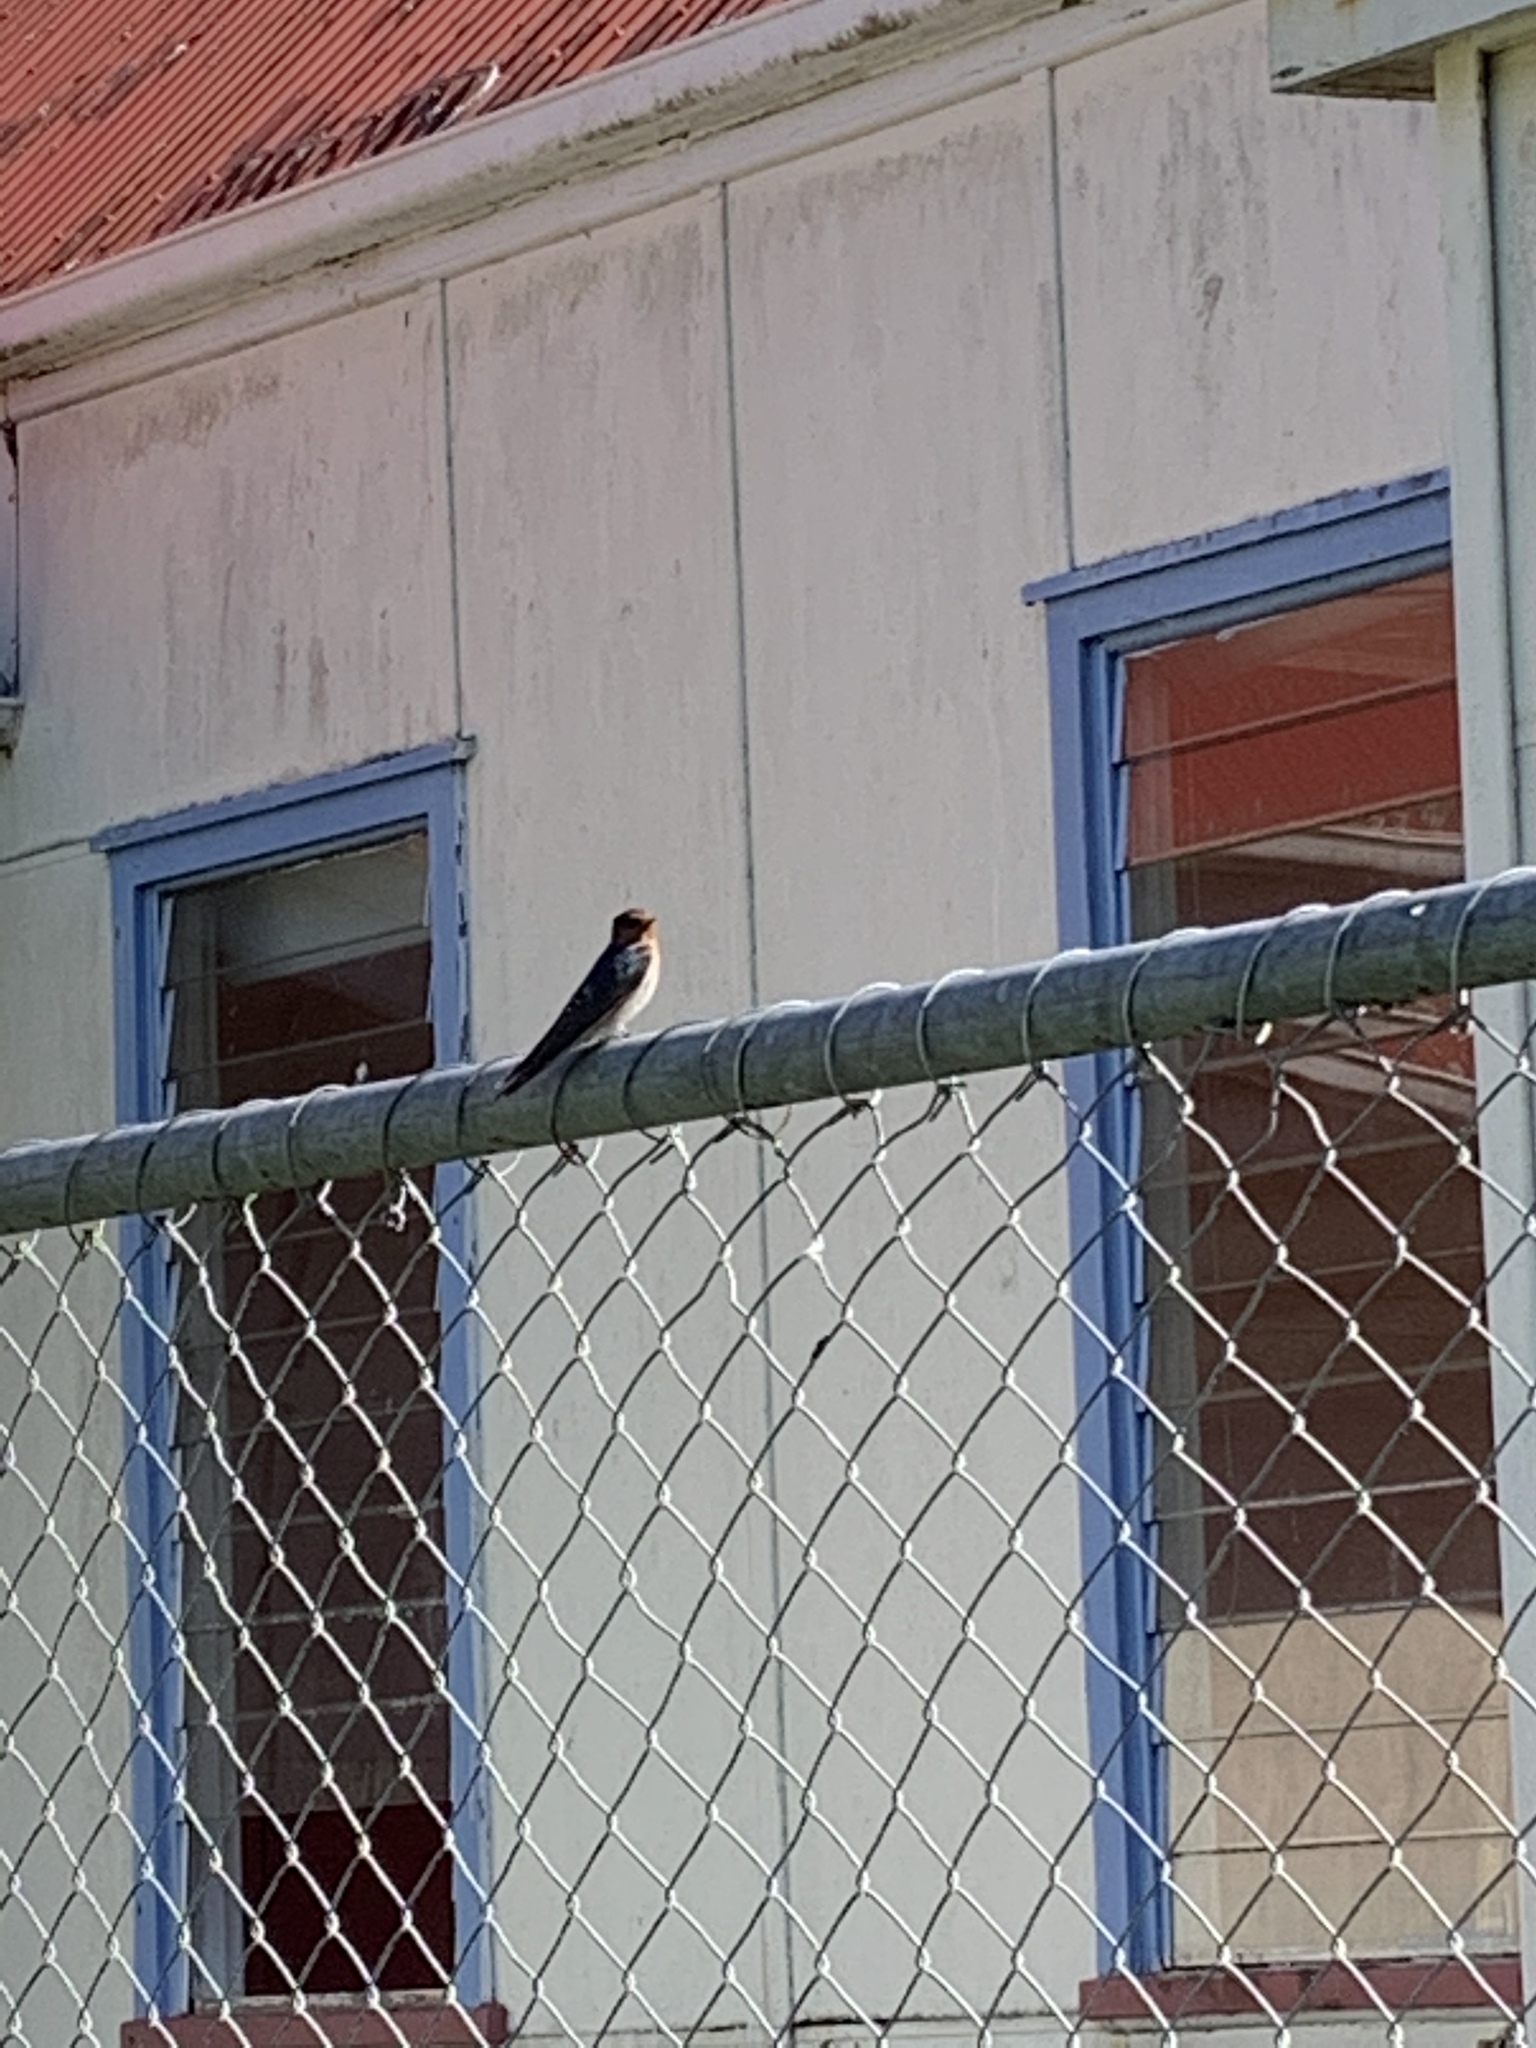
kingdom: Animalia
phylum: Chordata
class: Aves
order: Passeriformes
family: Hirundinidae
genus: Hirundo
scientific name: Hirundo neoxena
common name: Welcome swallow
